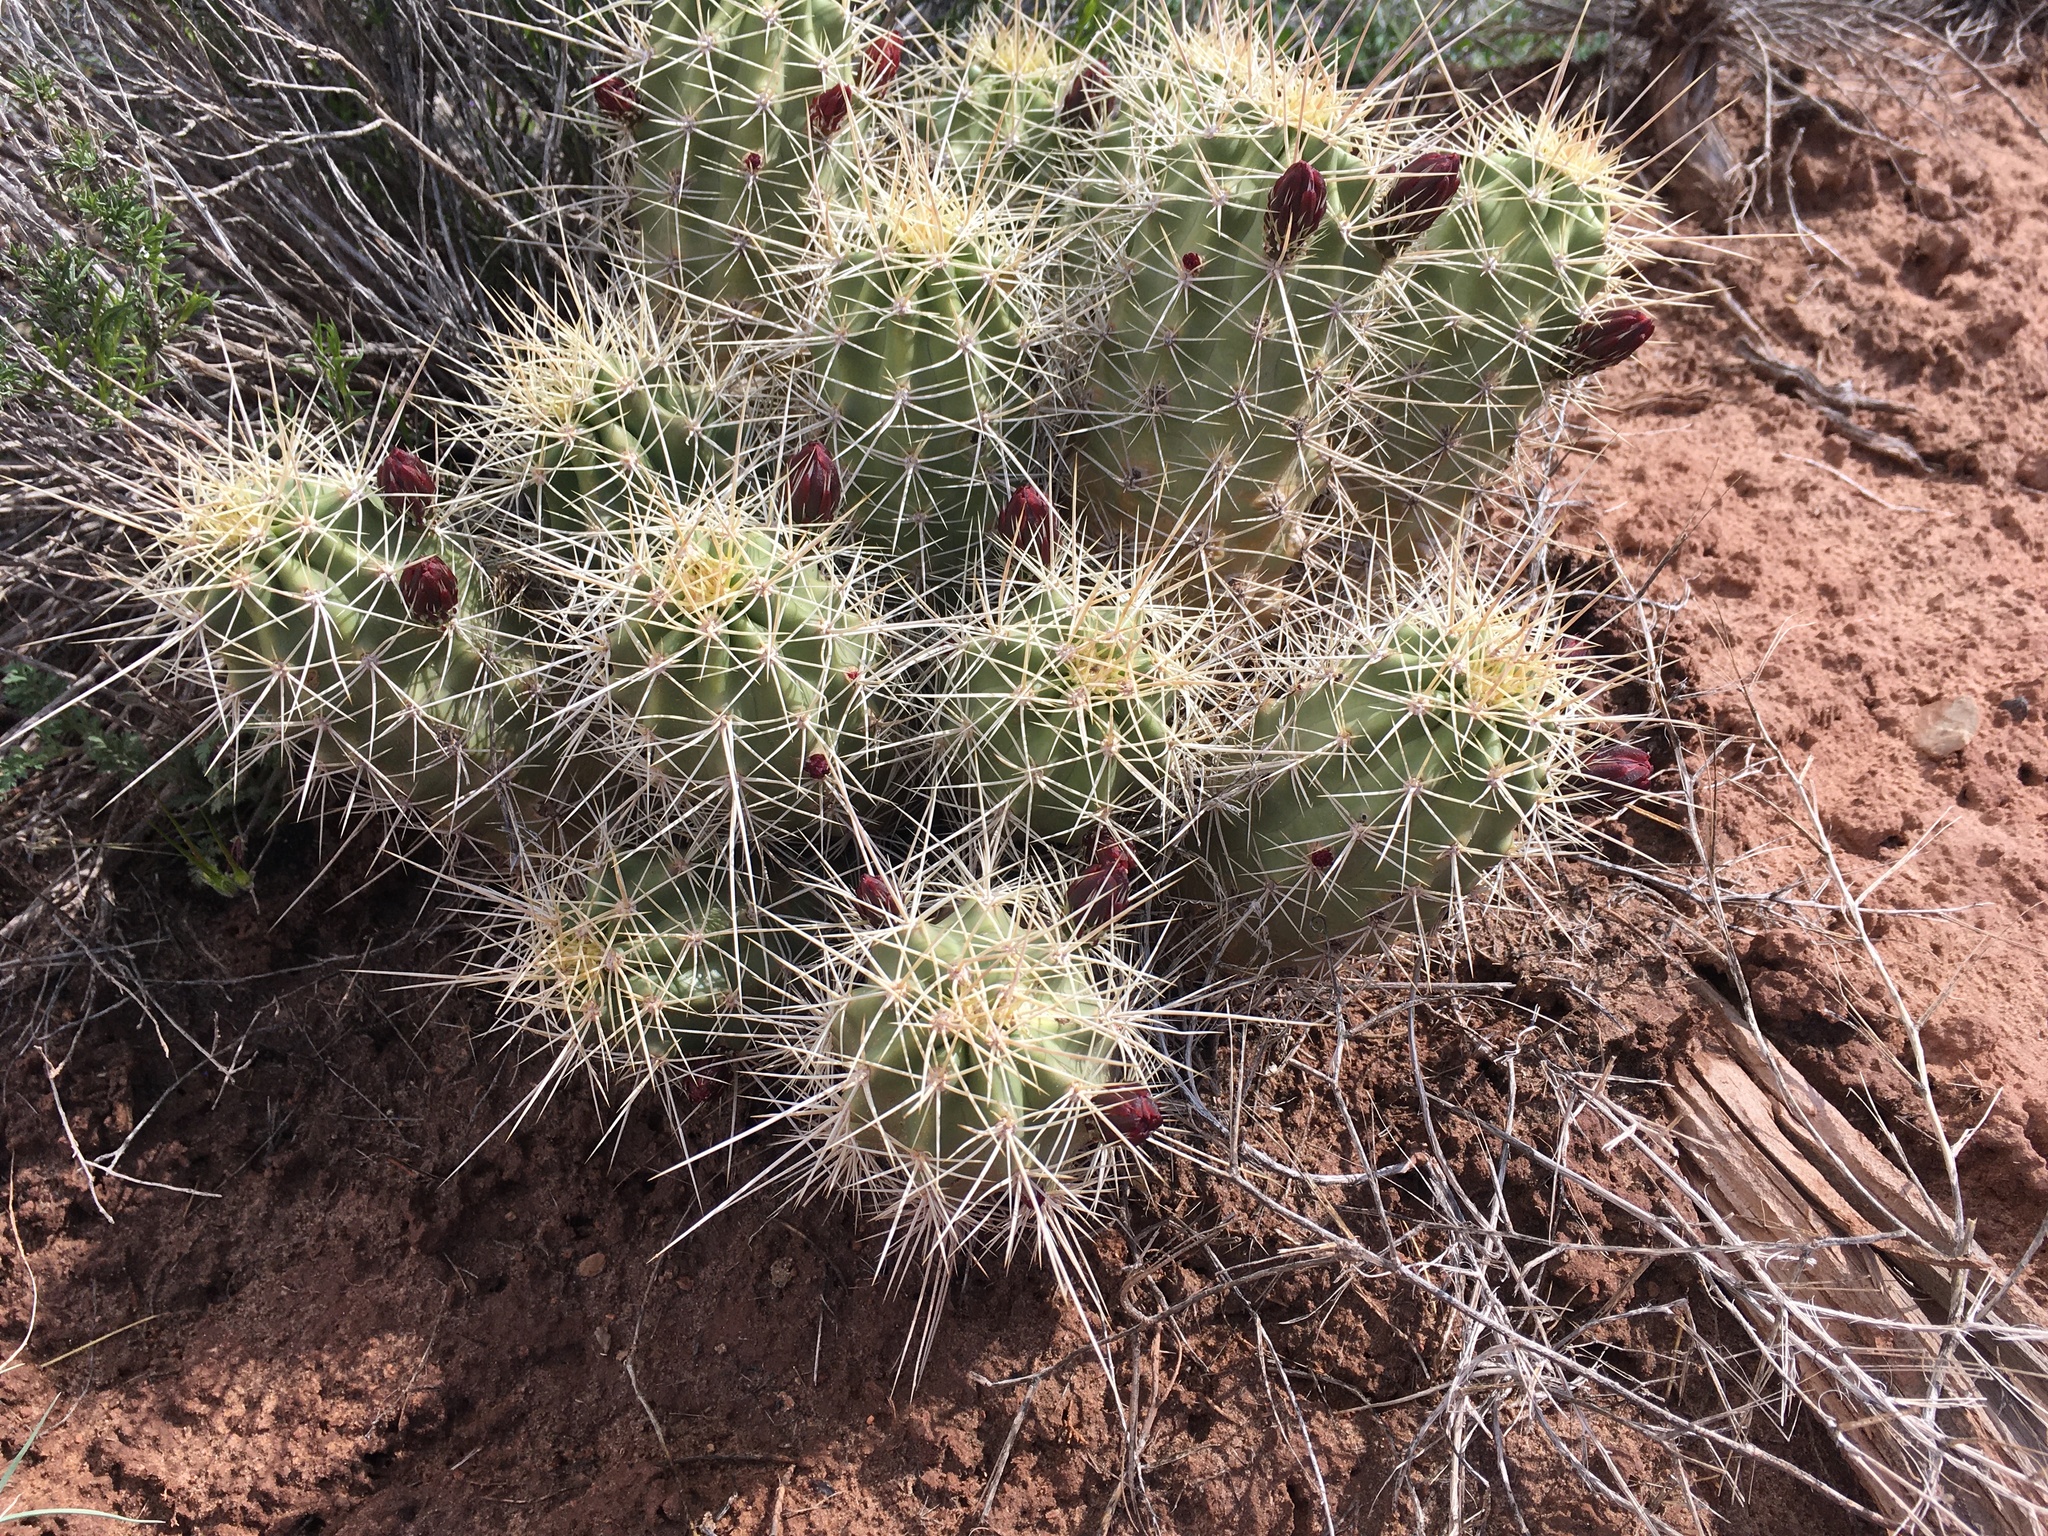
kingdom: Plantae
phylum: Tracheophyta
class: Magnoliopsida
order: Caryophyllales
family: Cactaceae
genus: Echinocereus
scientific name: Echinocereus triglochidiatus
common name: Claretcup hedgehog
